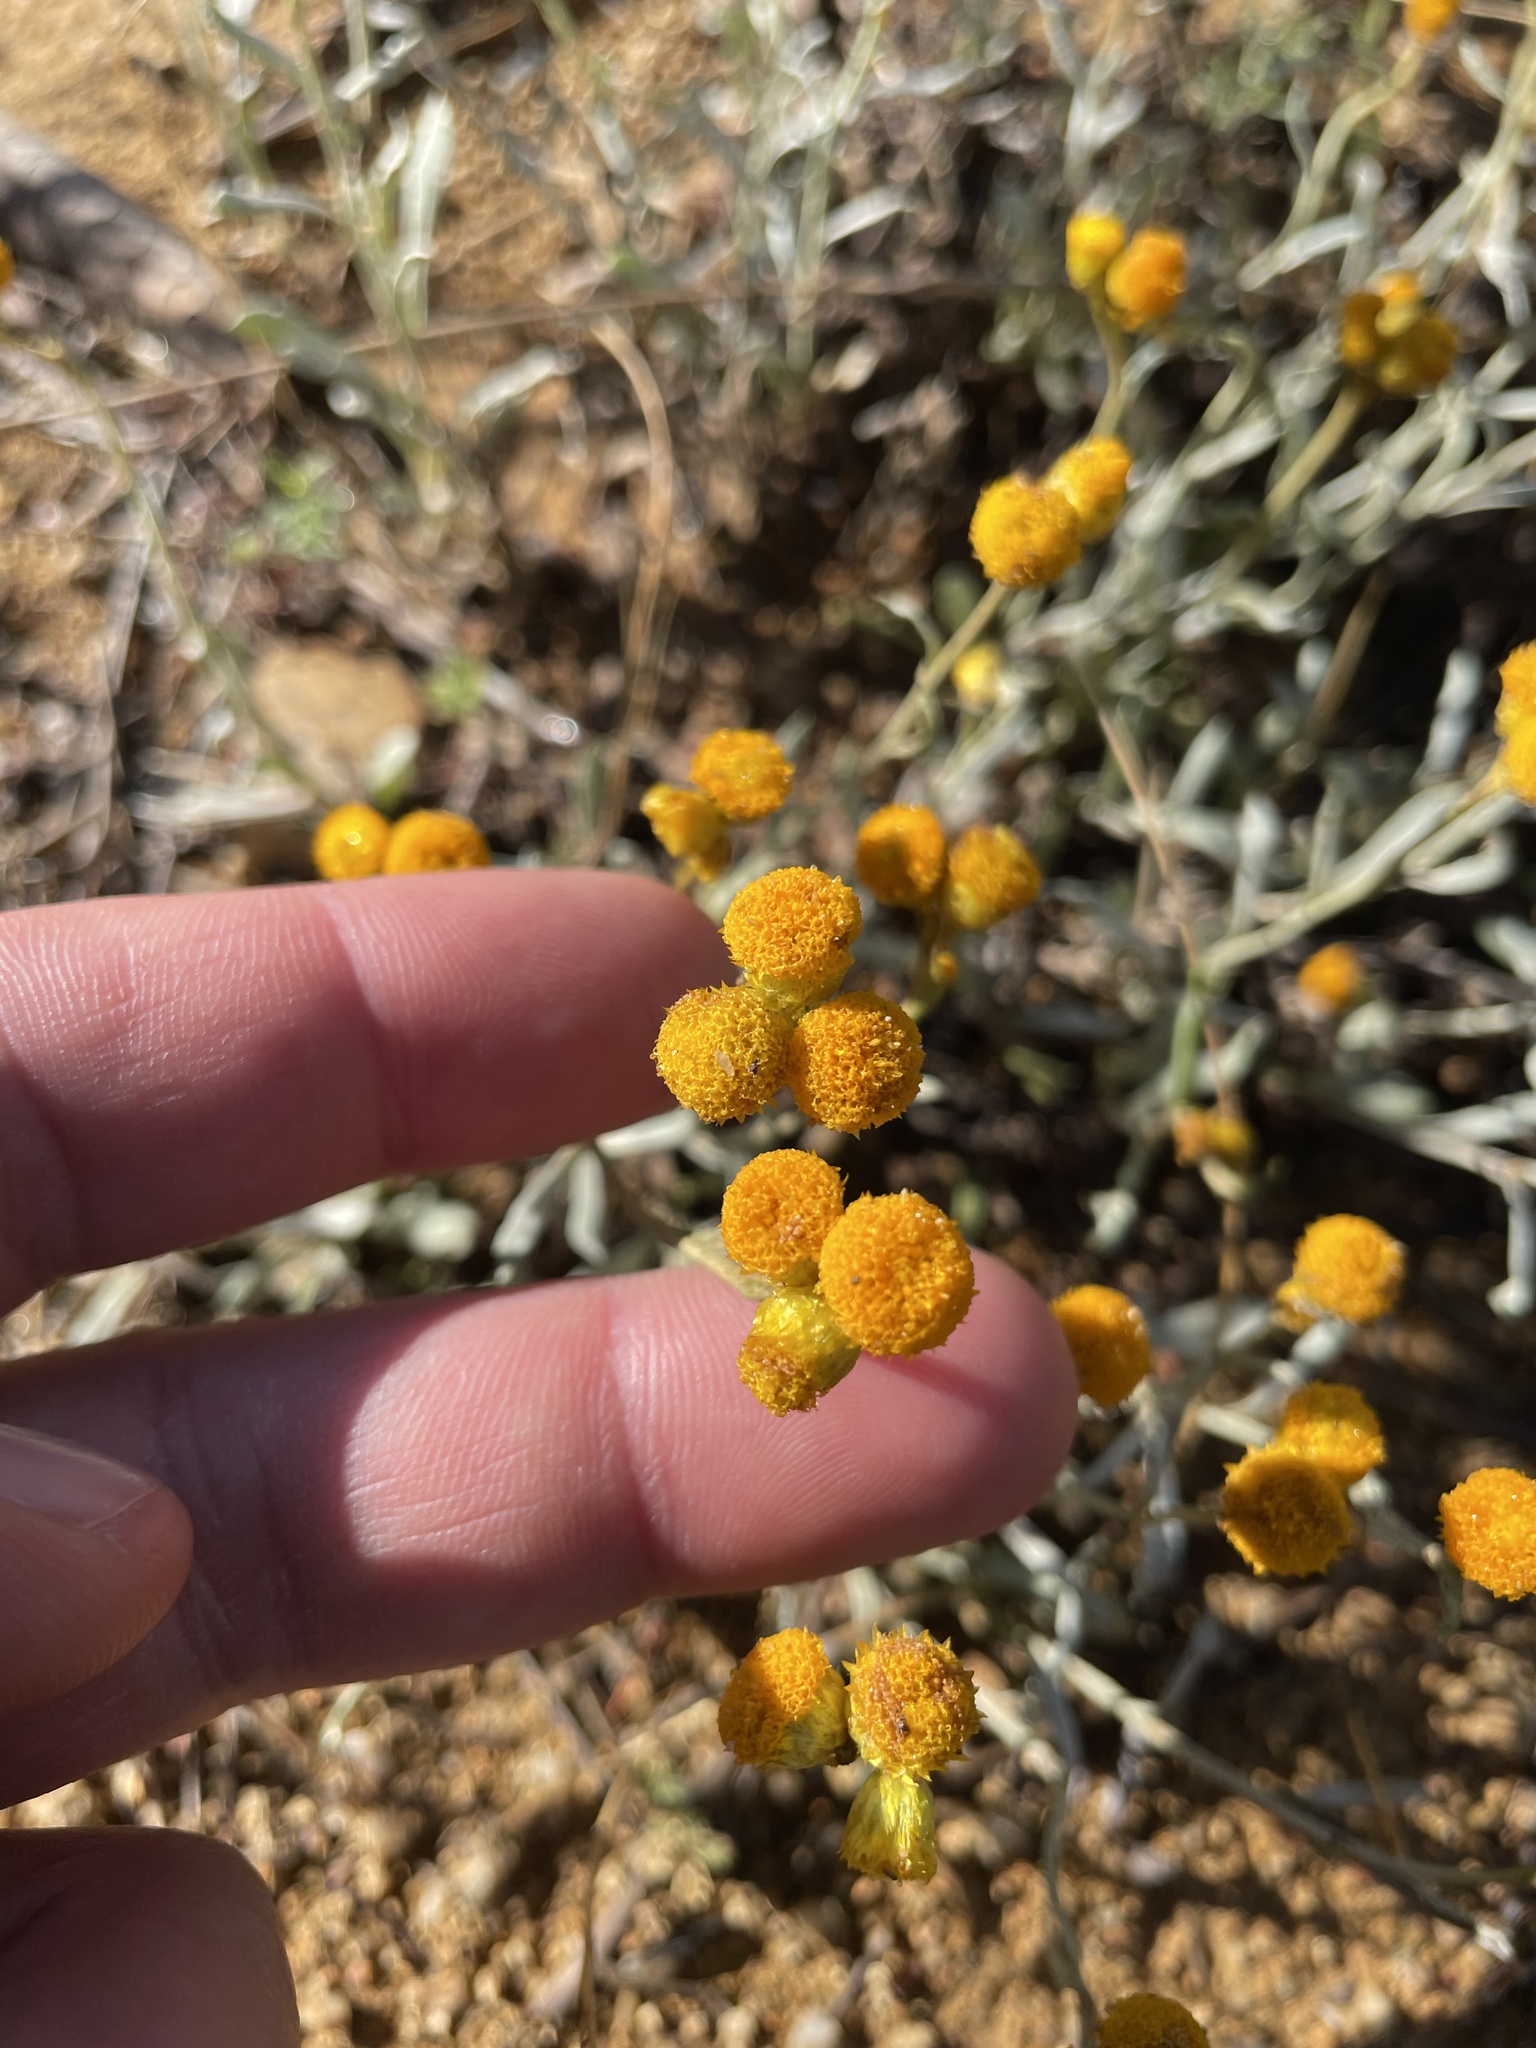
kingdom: Plantae
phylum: Tracheophyta
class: Magnoliopsida
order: Asterales
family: Asteraceae
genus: Chrysocephalum
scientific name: Chrysocephalum apiculatum
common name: Common everlasting
